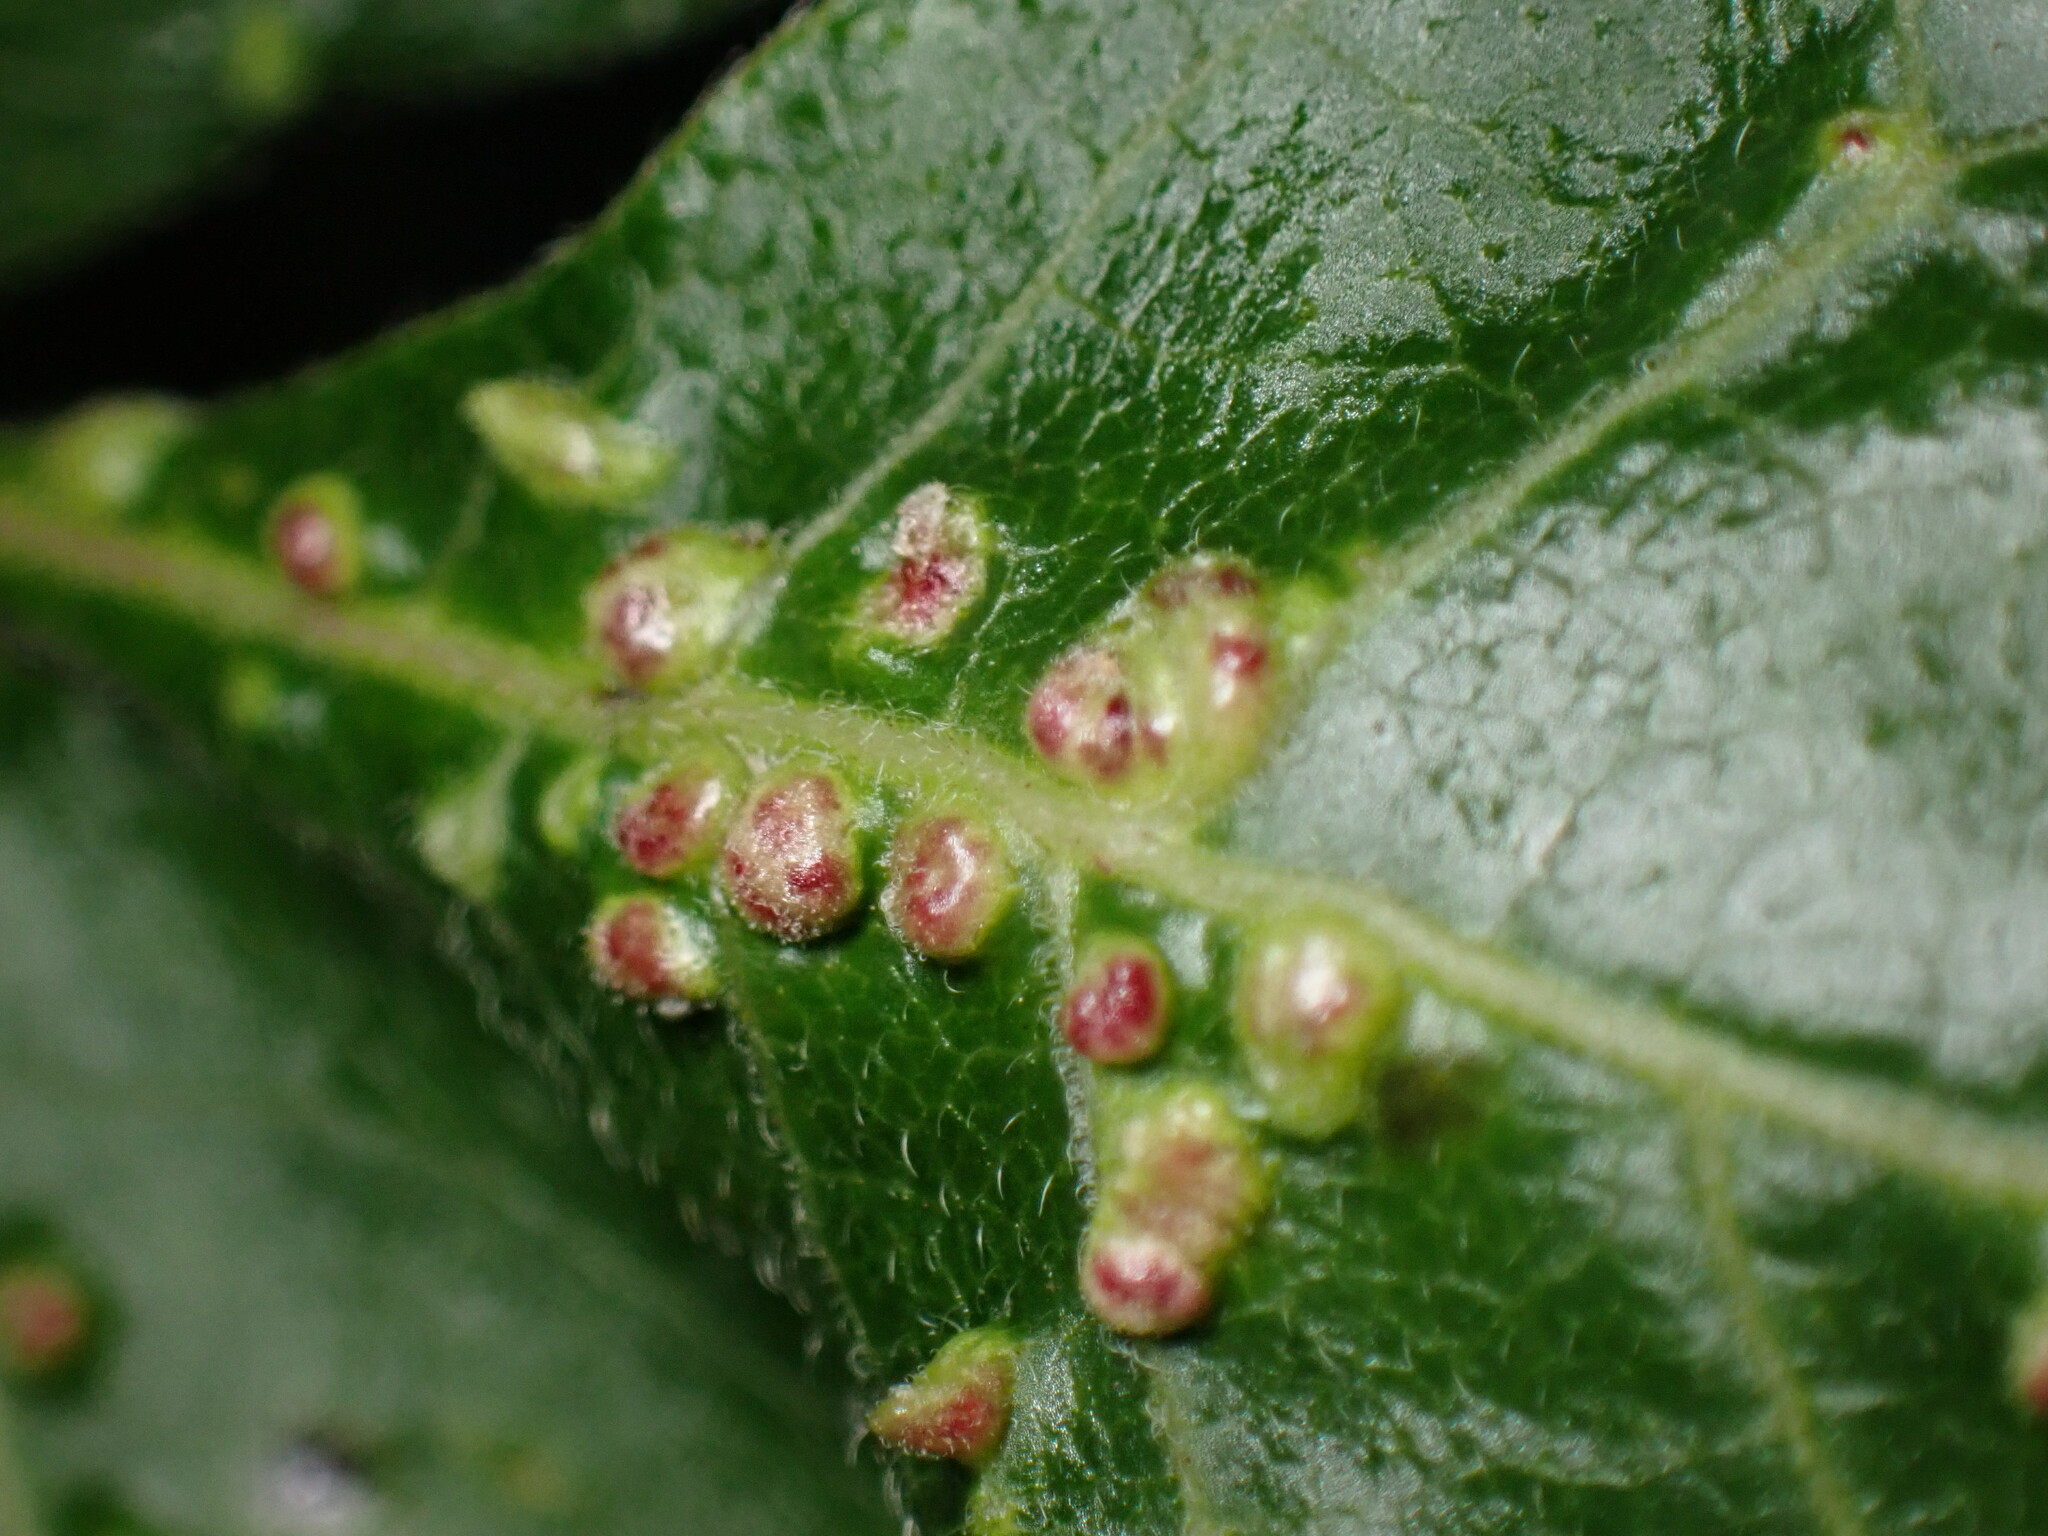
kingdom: Animalia
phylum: Arthropoda
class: Arachnida
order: Trombidiformes
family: Eriophyidae
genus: Aculops
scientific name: Aculops
